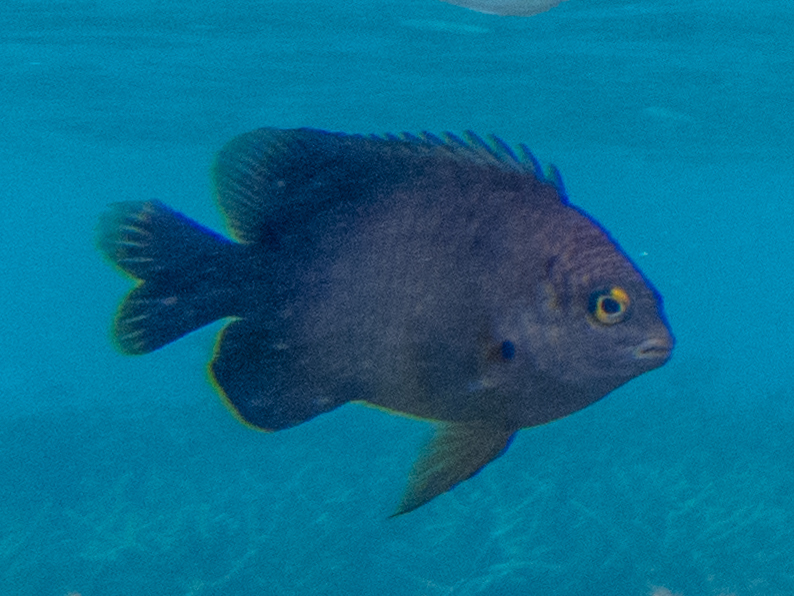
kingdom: Animalia
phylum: Chordata
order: Perciformes
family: Pomacentridae
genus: Stegastes
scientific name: Stegastes nigricans
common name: Dusky gregory
